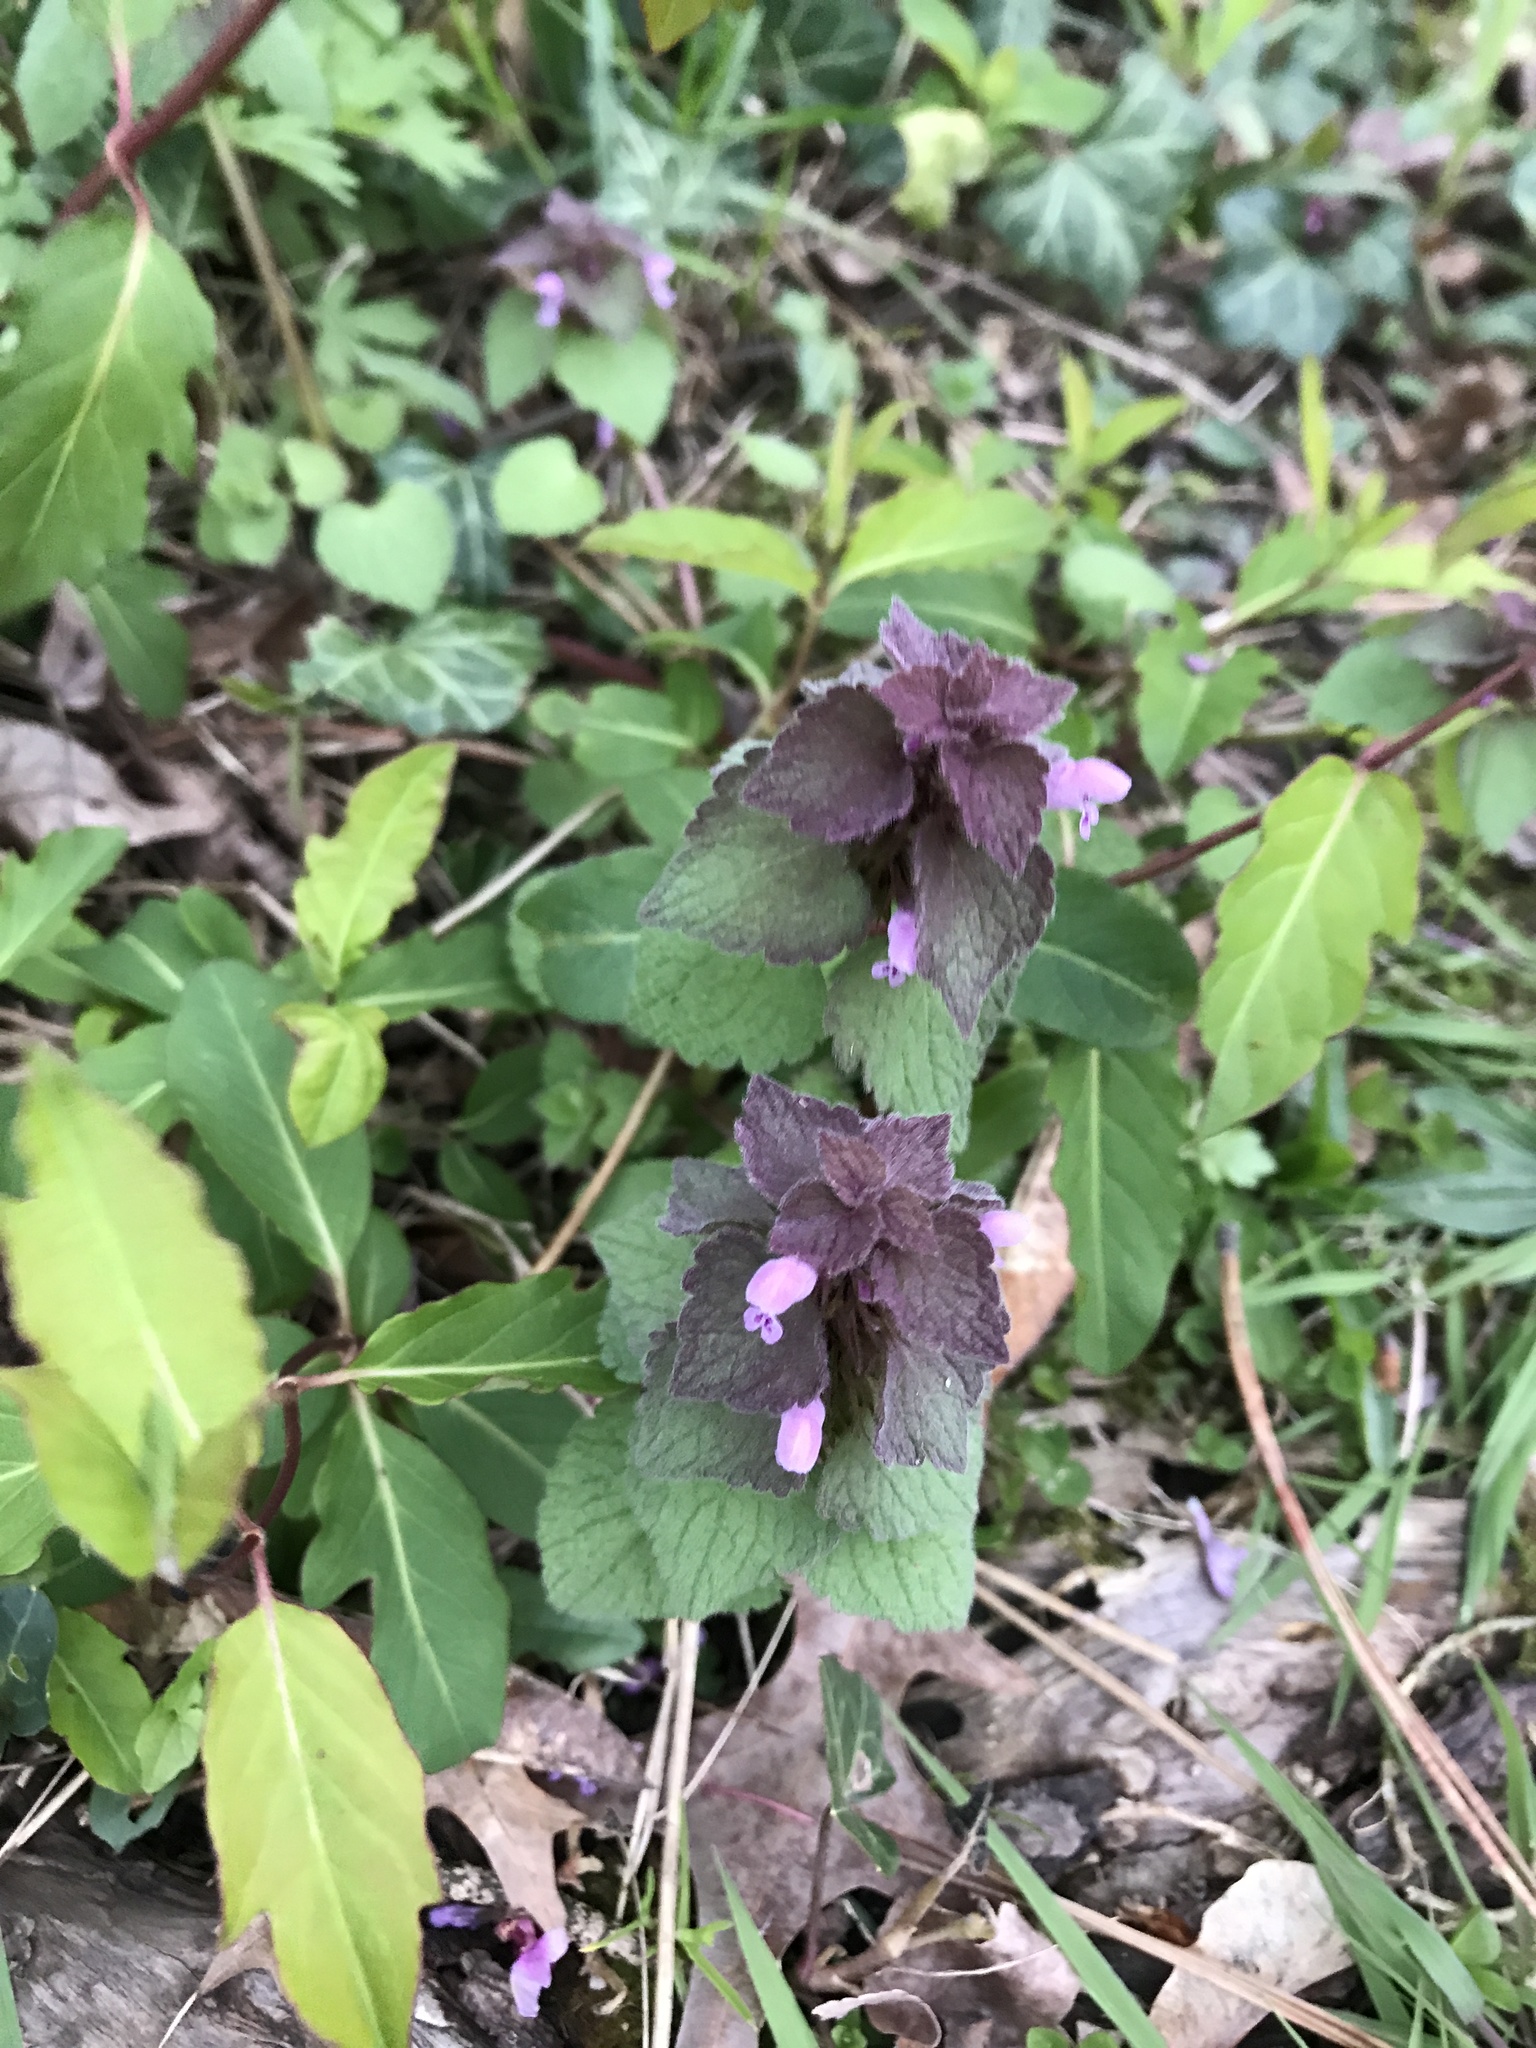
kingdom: Plantae
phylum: Tracheophyta
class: Magnoliopsida
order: Lamiales
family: Lamiaceae
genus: Lamium
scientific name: Lamium purpureum
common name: Red dead-nettle
